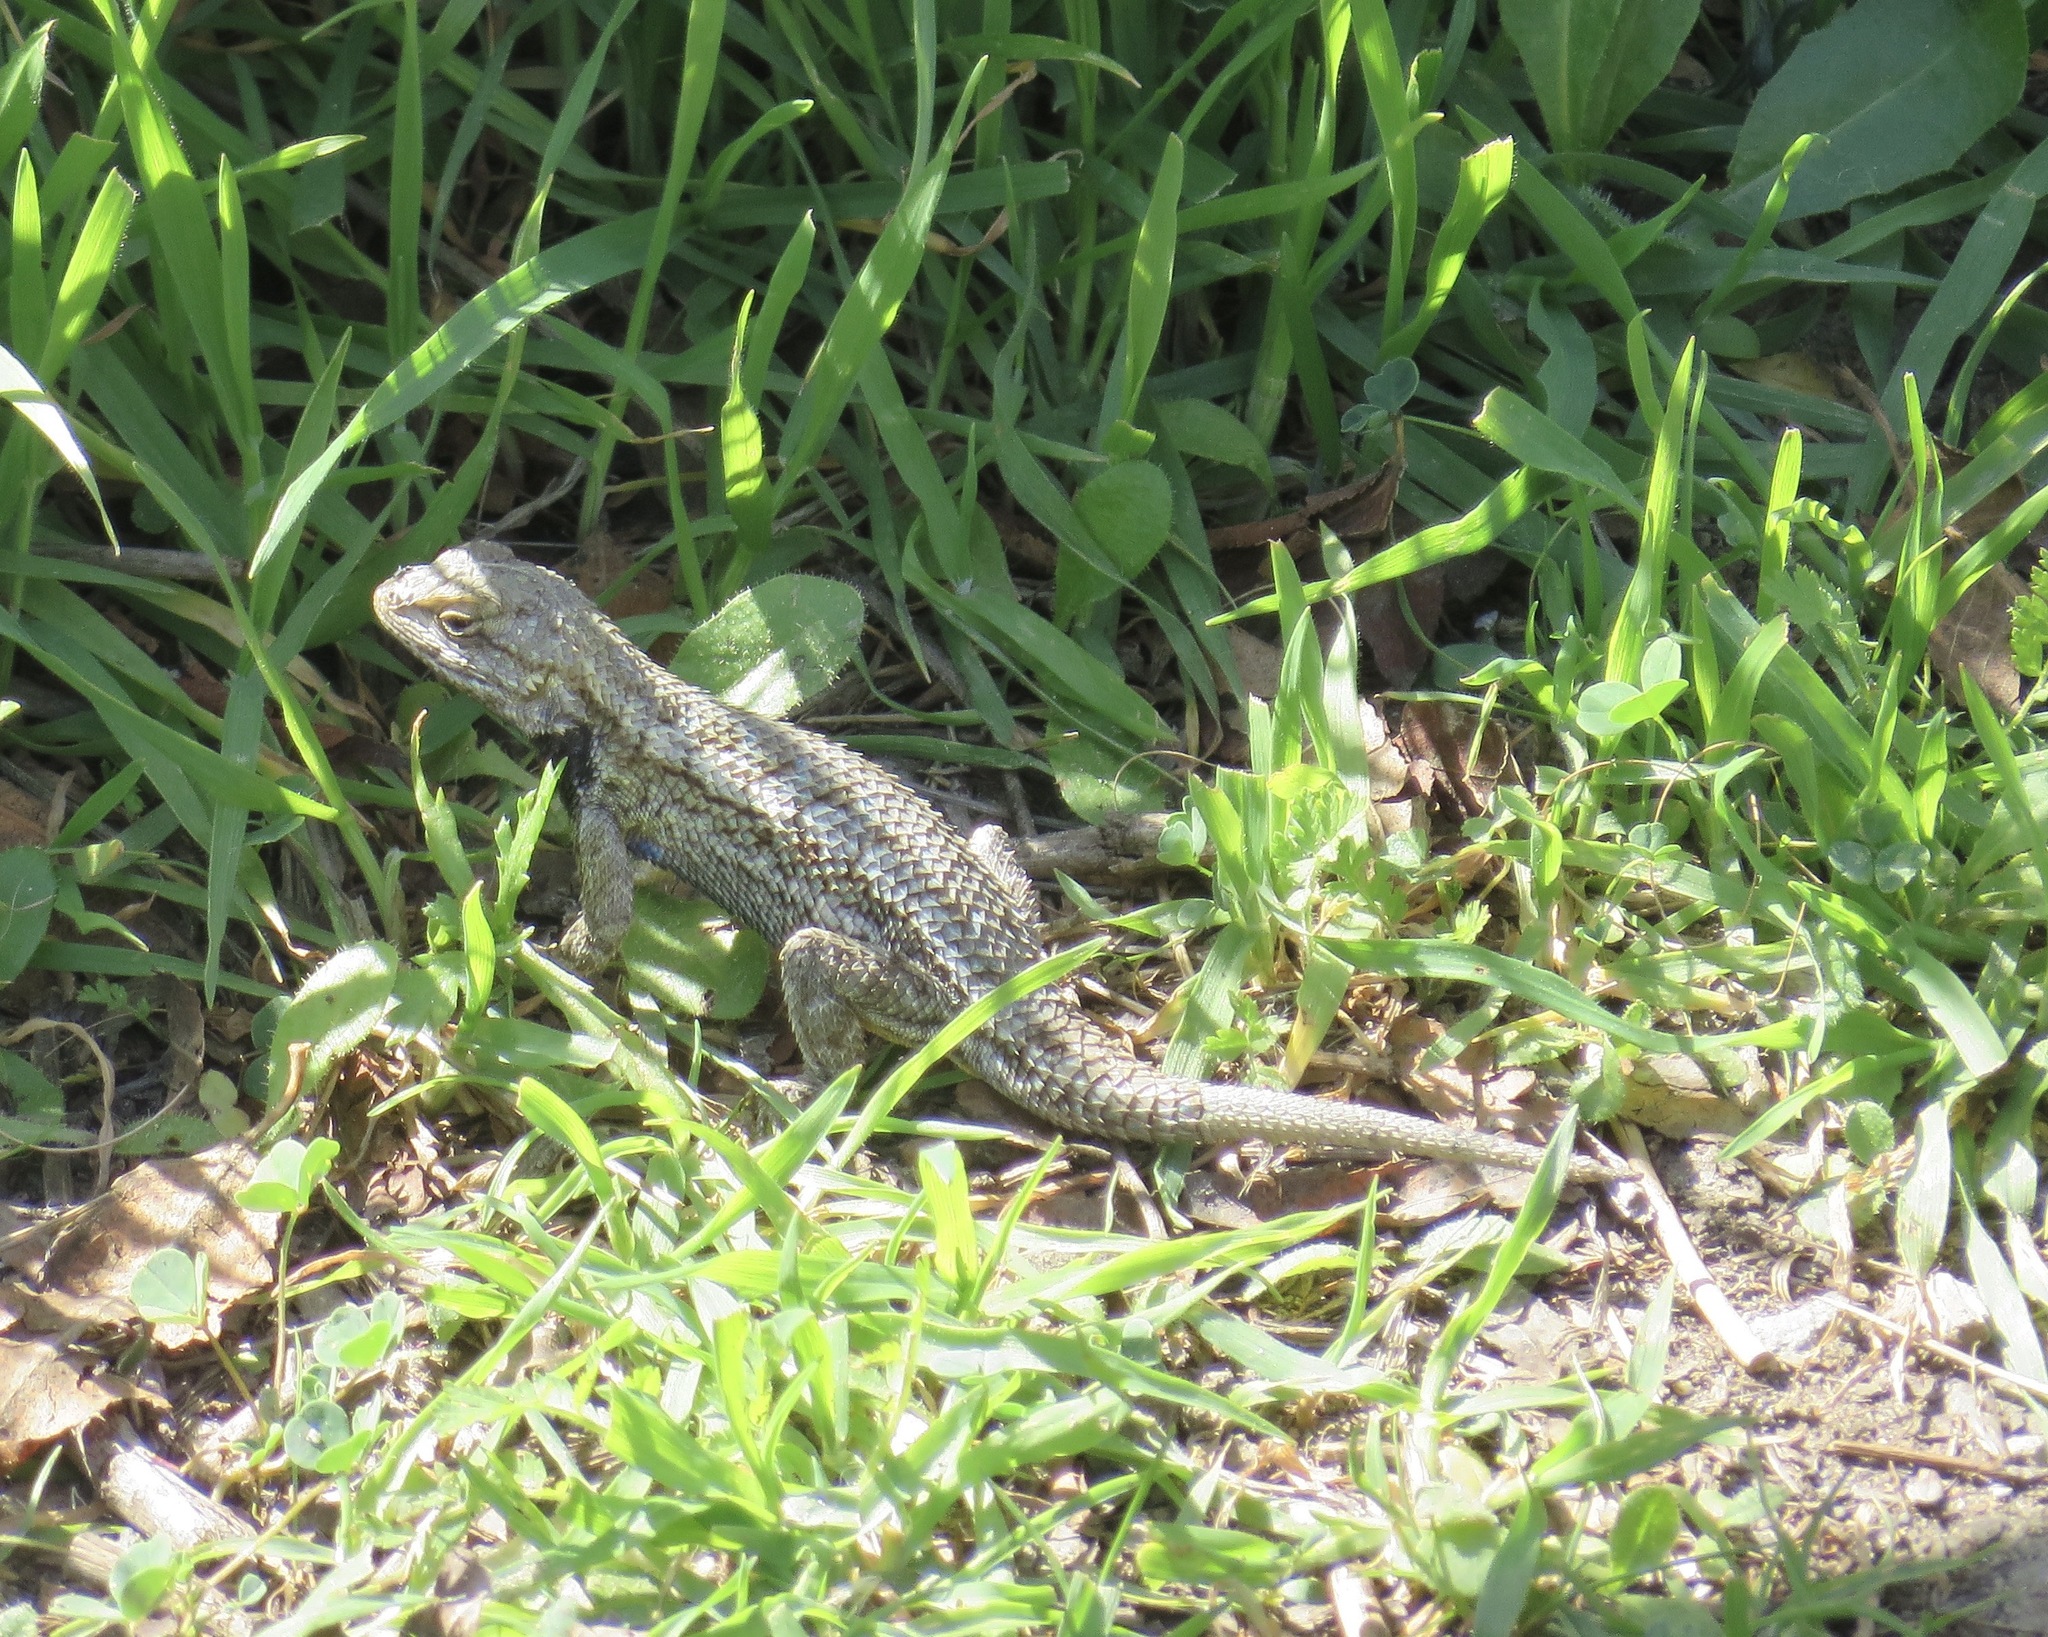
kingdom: Animalia
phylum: Chordata
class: Squamata
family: Phrynosomatidae
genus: Sceloporus
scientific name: Sceloporus occidentalis
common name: Western fence lizard
